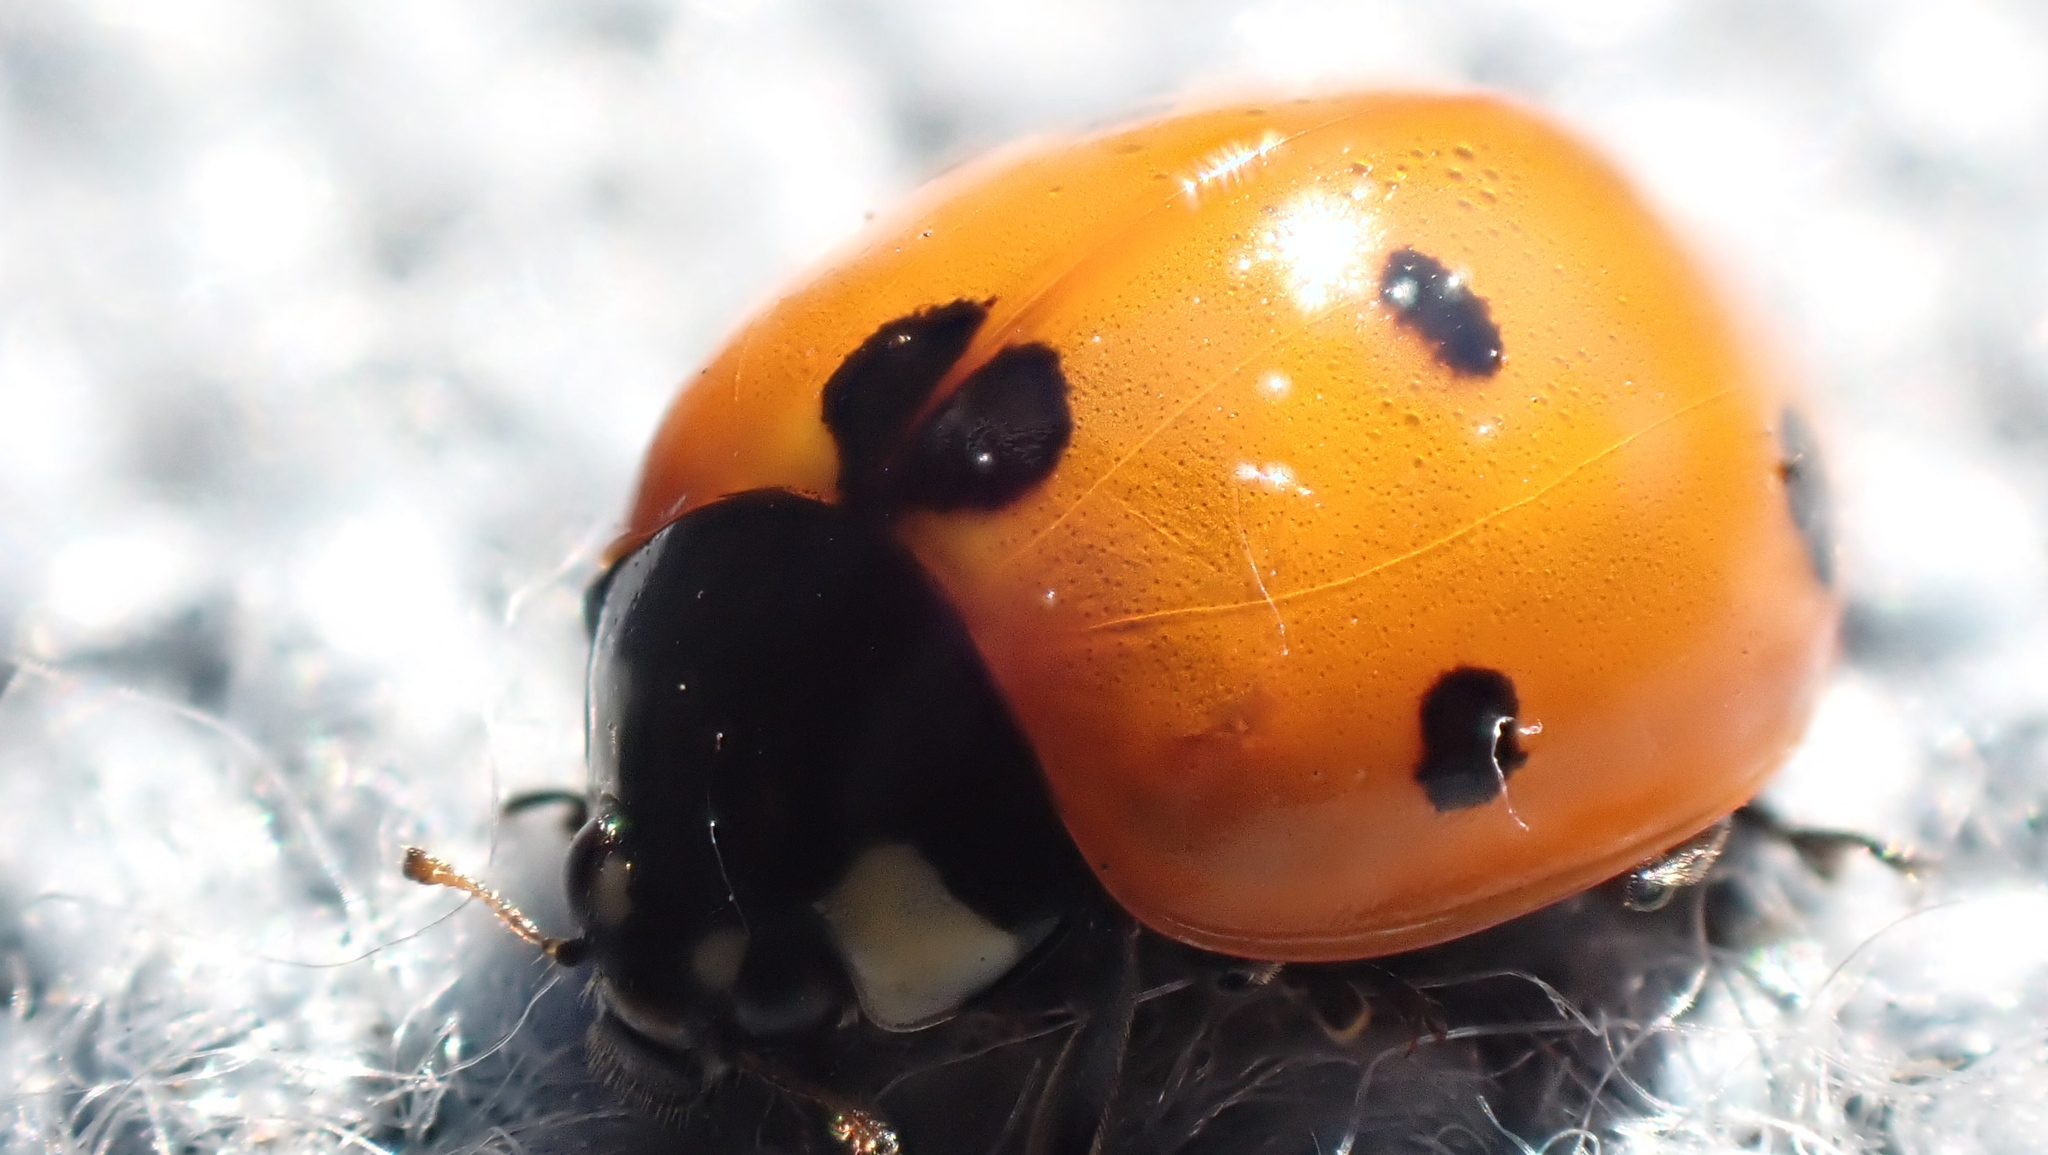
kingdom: Animalia
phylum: Arthropoda
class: Insecta
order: Coleoptera
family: Coccinellidae
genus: Coccinella
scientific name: Coccinella septempunctata
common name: Sevenspotted lady beetle
